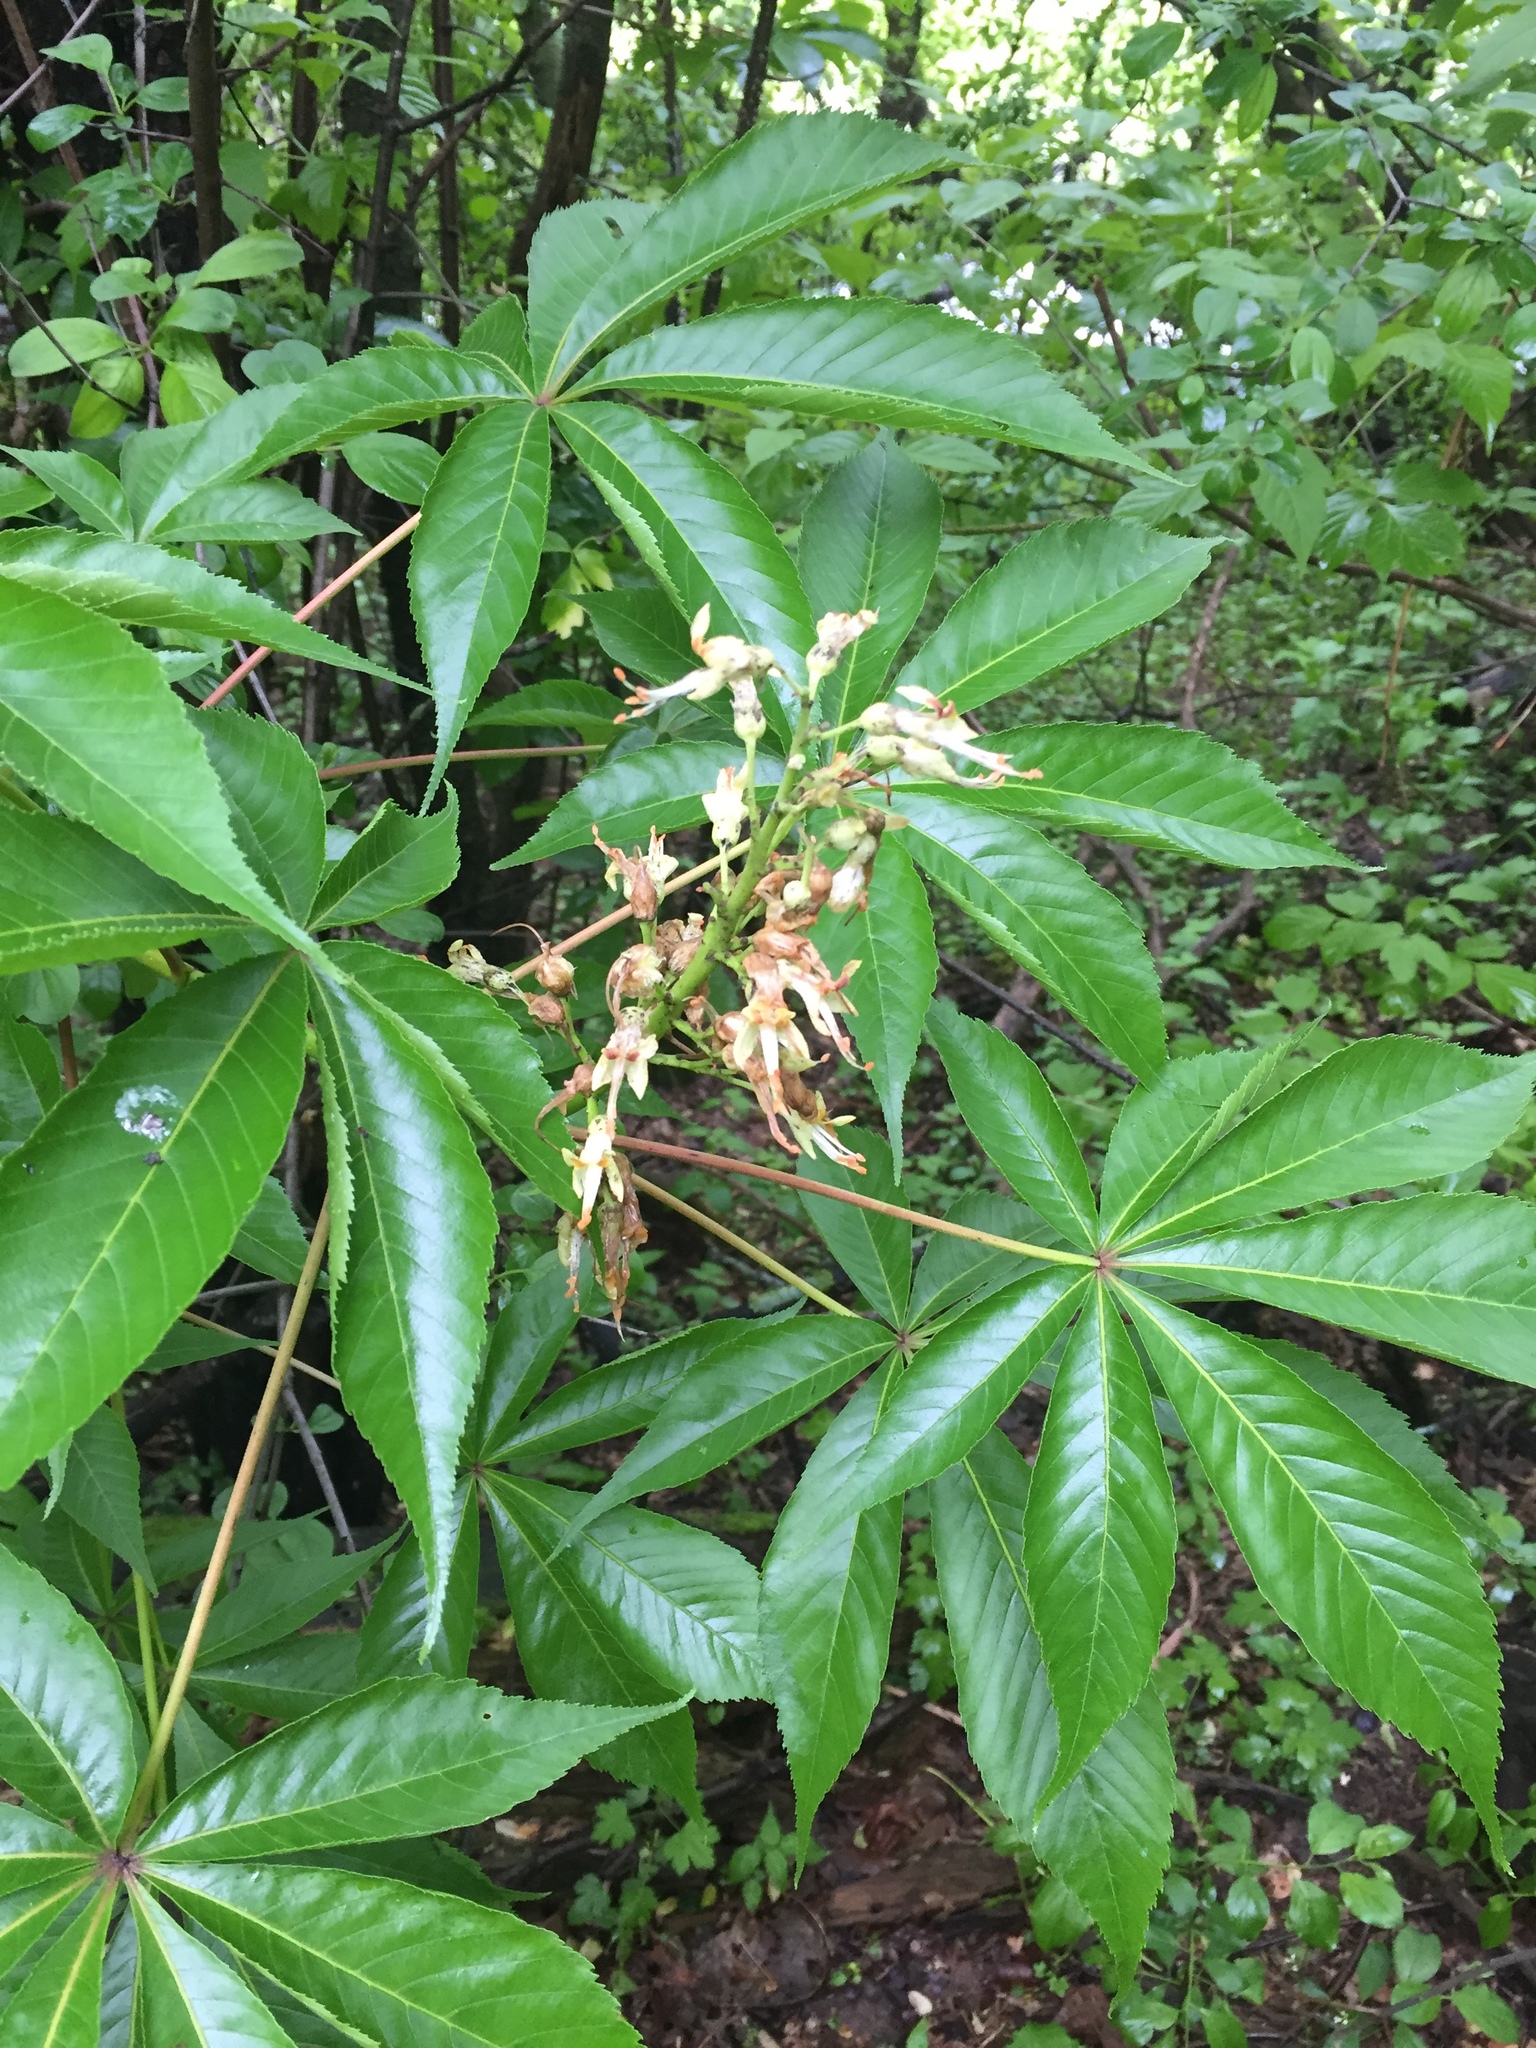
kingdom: Plantae
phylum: Tracheophyta
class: Magnoliopsida
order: Sapindales
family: Sapindaceae
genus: Aesculus
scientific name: Aesculus glabra
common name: Ohio buckeye
